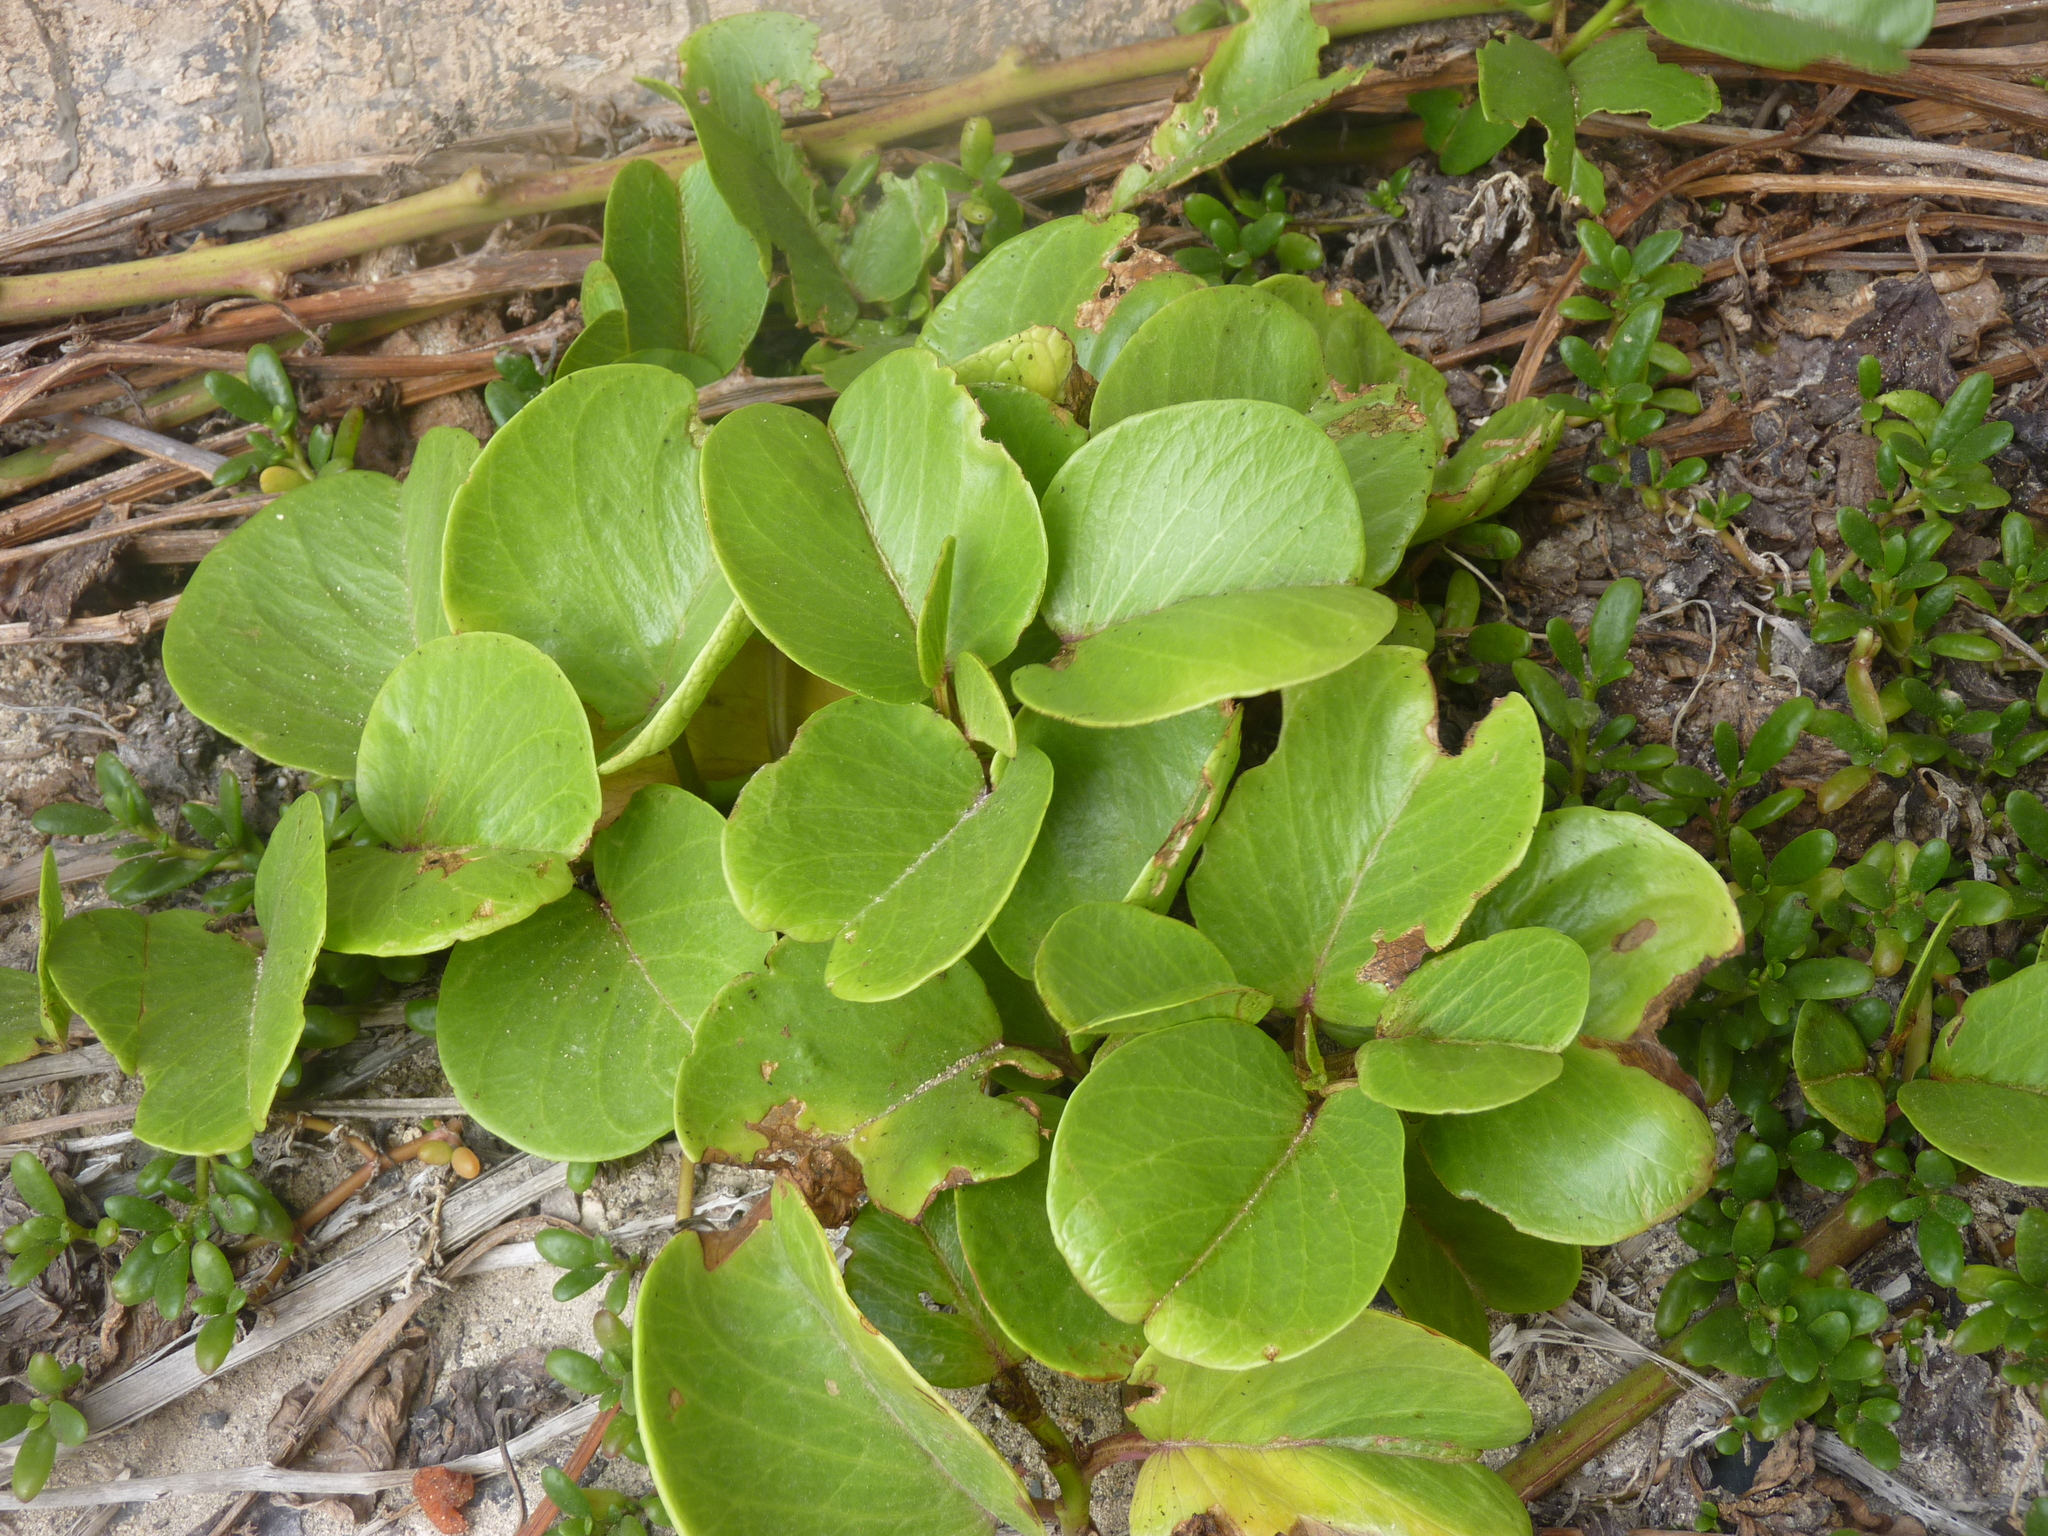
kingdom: Plantae
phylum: Tracheophyta
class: Magnoliopsida
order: Solanales
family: Convolvulaceae
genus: Ipomoea
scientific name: Ipomoea pes-caprae
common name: Beach morning glory
